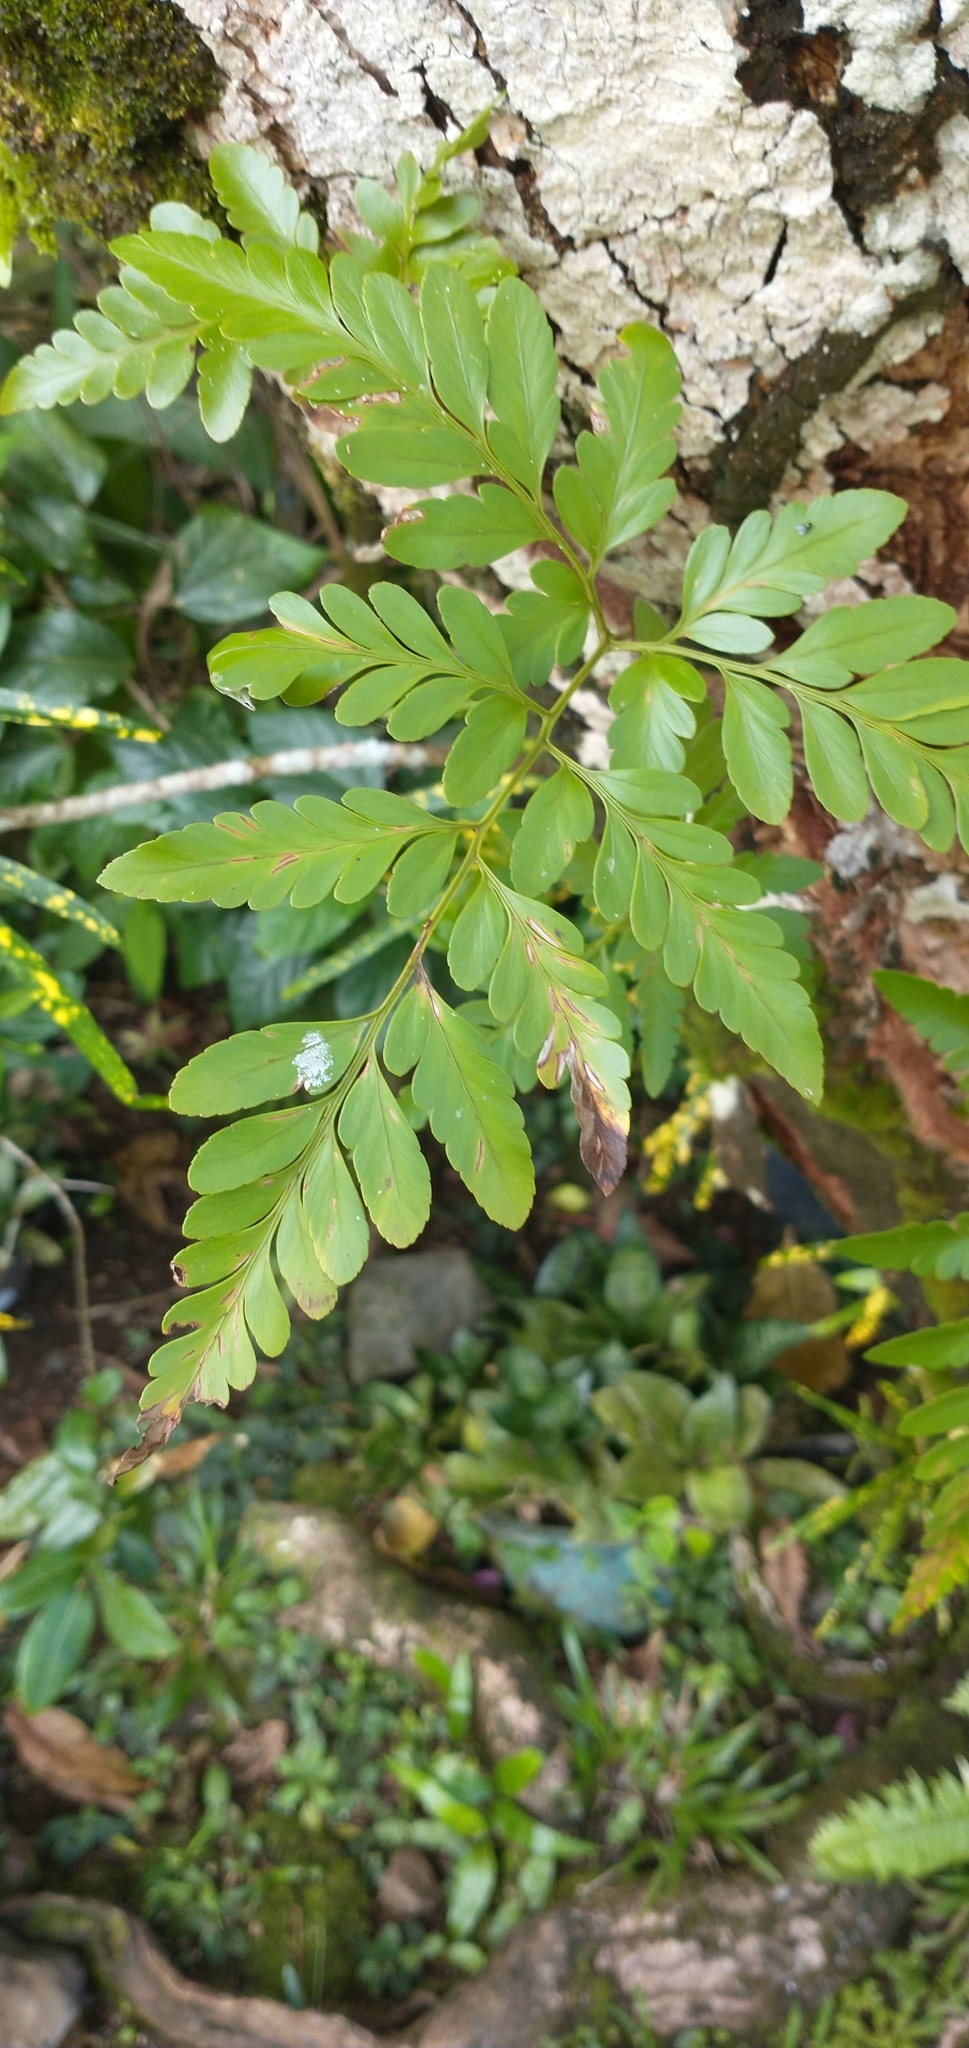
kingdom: Plantae
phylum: Tracheophyta
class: Polypodiopsida
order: Polypodiales
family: Davalliaceae
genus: Davallia
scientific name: Davallia solida
